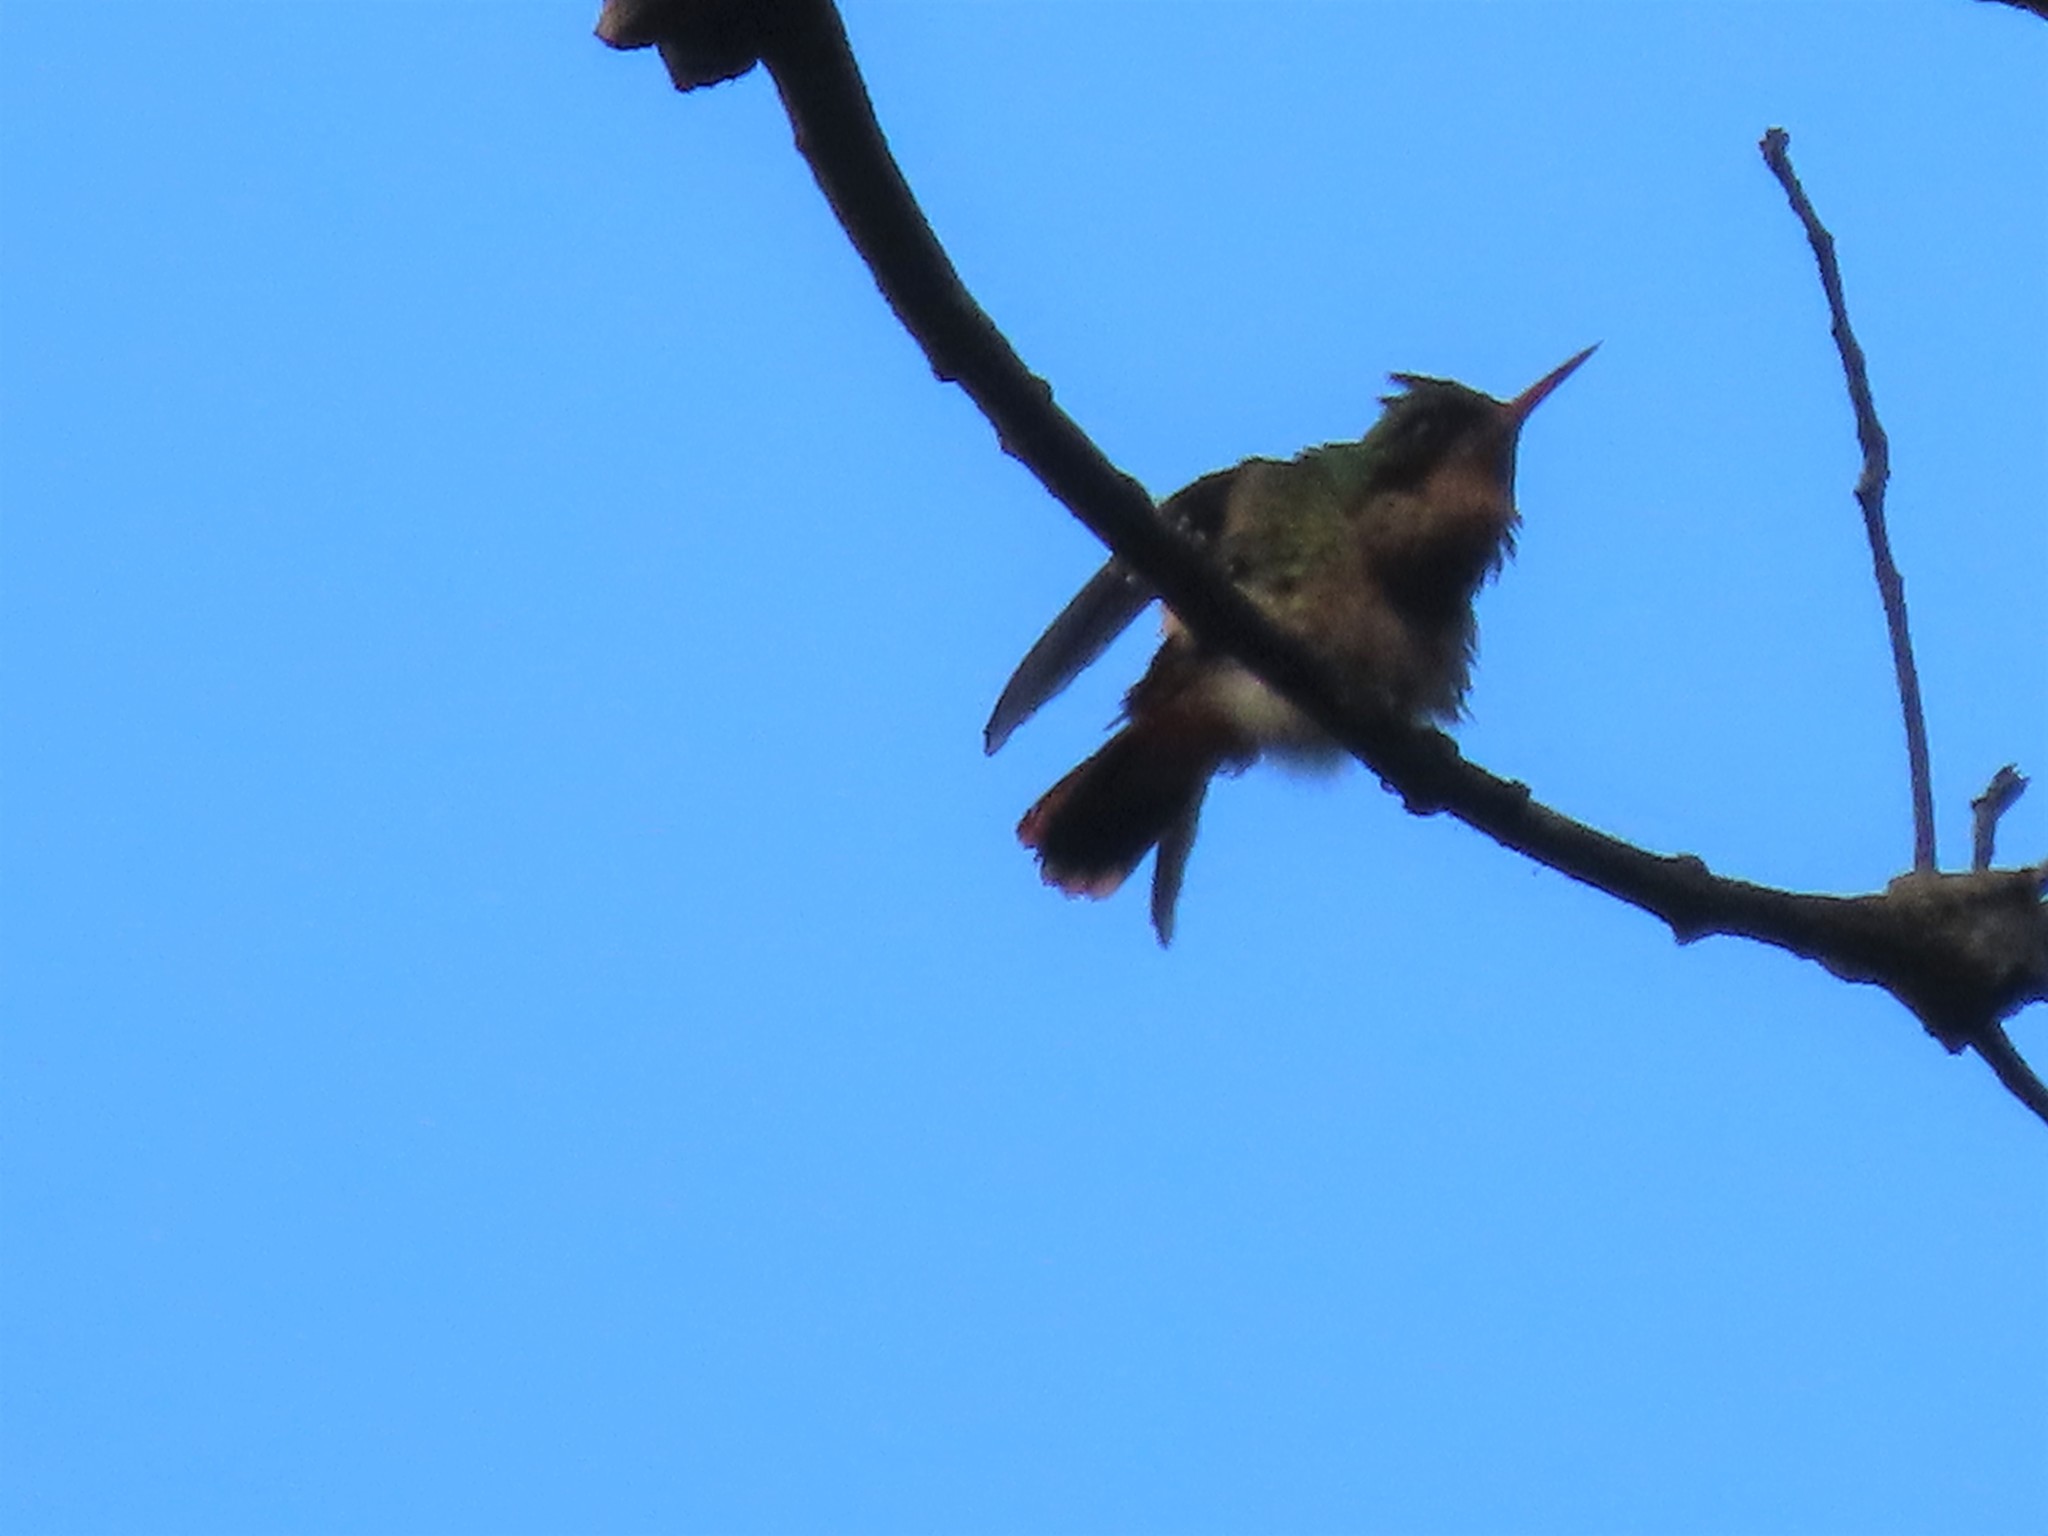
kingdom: Animalia
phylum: Chordata
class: Aves
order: Apodiformes
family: Trochilidae
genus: Lophornis
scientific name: Lophornis helenae
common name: Black-crested coquette
